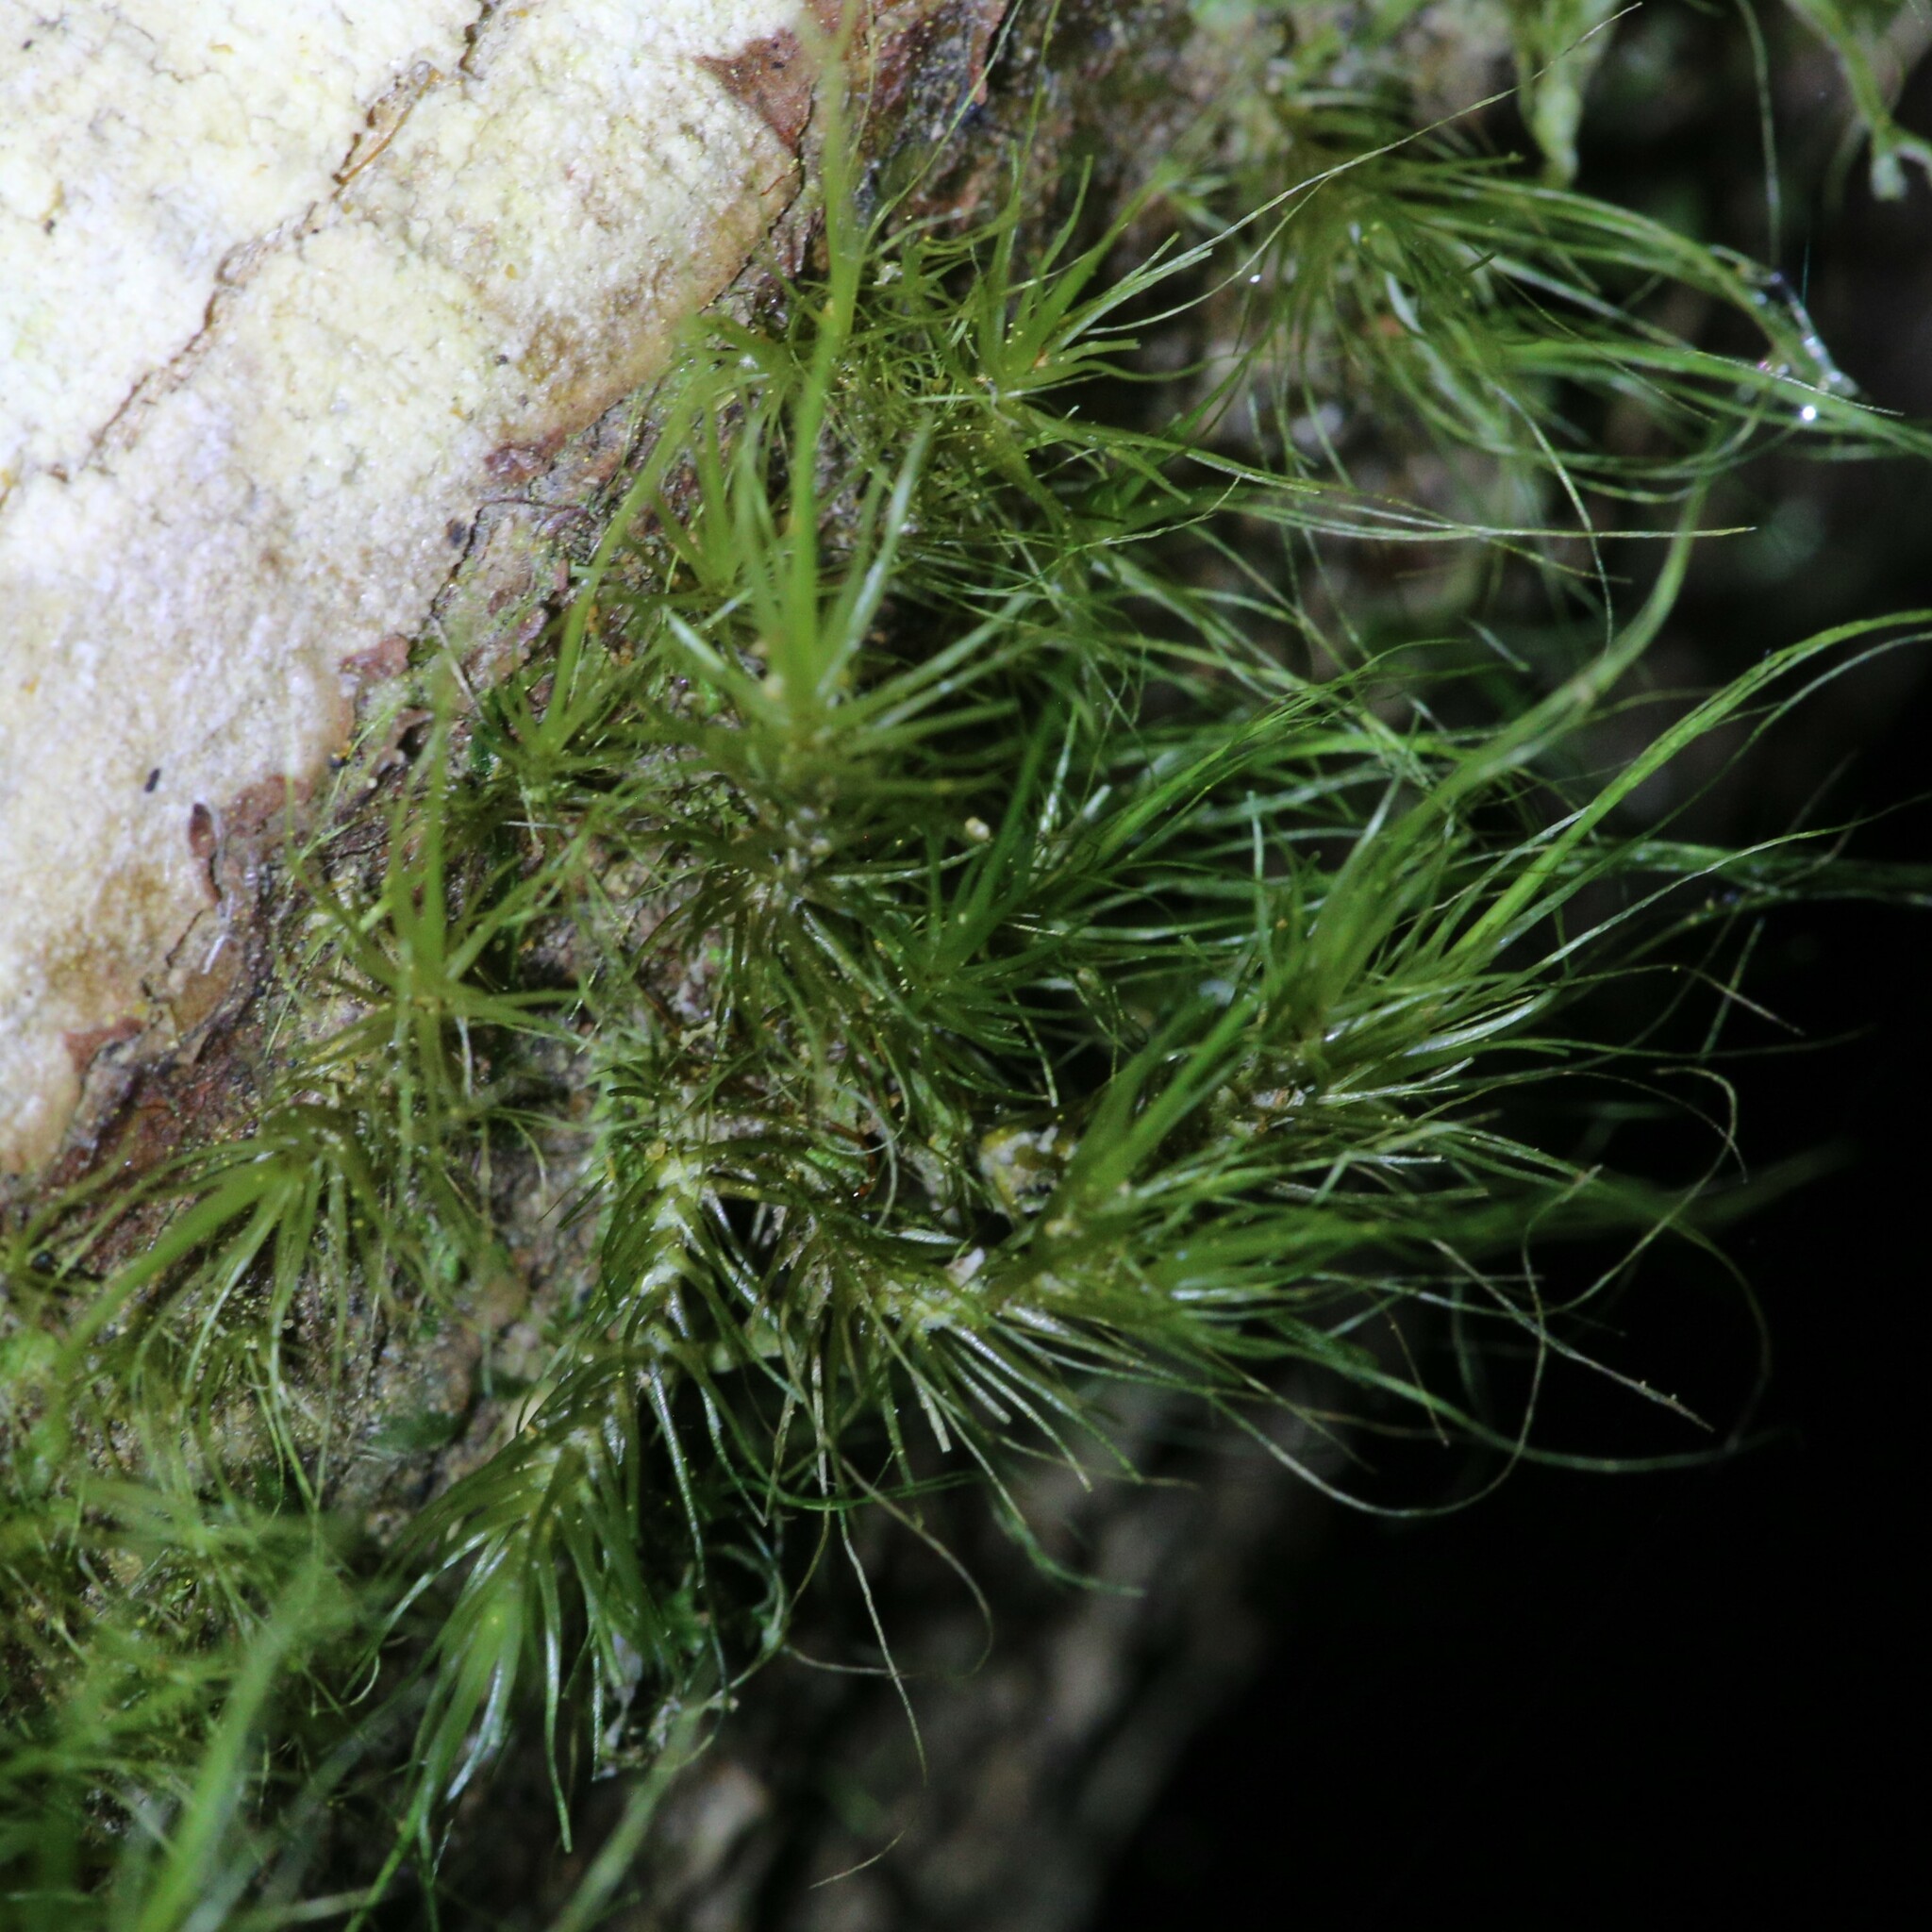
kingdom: Plantae
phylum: Bryophyta
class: Bryopsida
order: Dicranales
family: Dicranaceae
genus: Dicranoloma
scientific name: Dicranoloma robustum
